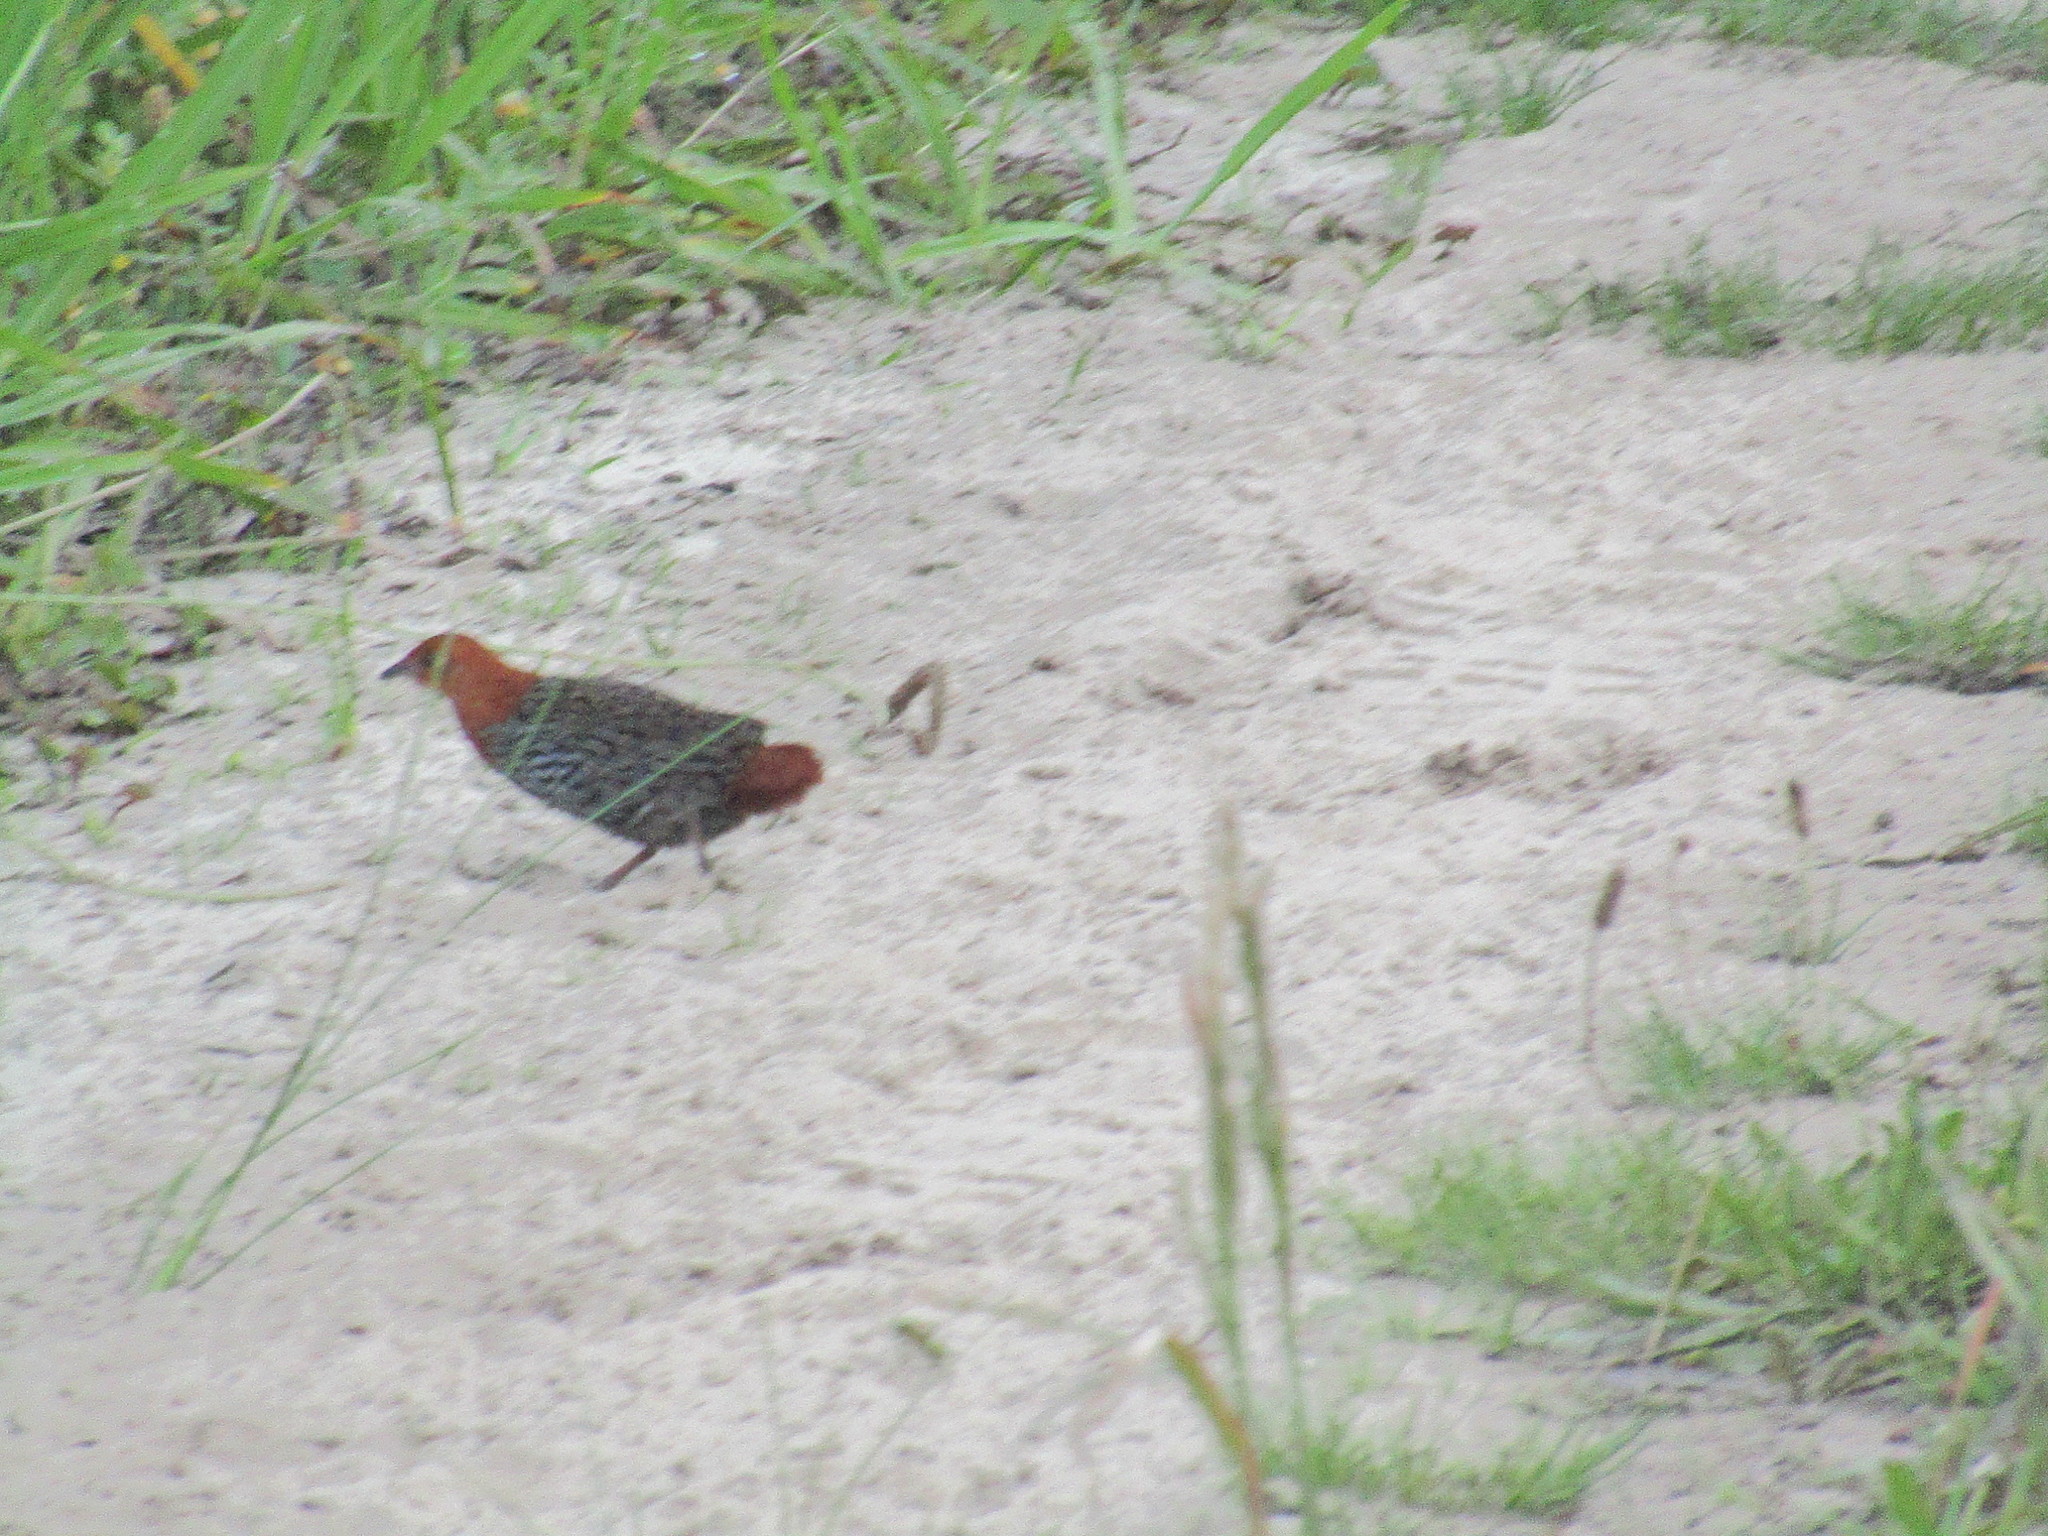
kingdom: Animalia
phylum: Chordata
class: Aves
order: Gruiformes
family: Rallidae
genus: Sarothrura
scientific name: Sarothrura affinis
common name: Striped flufftail
